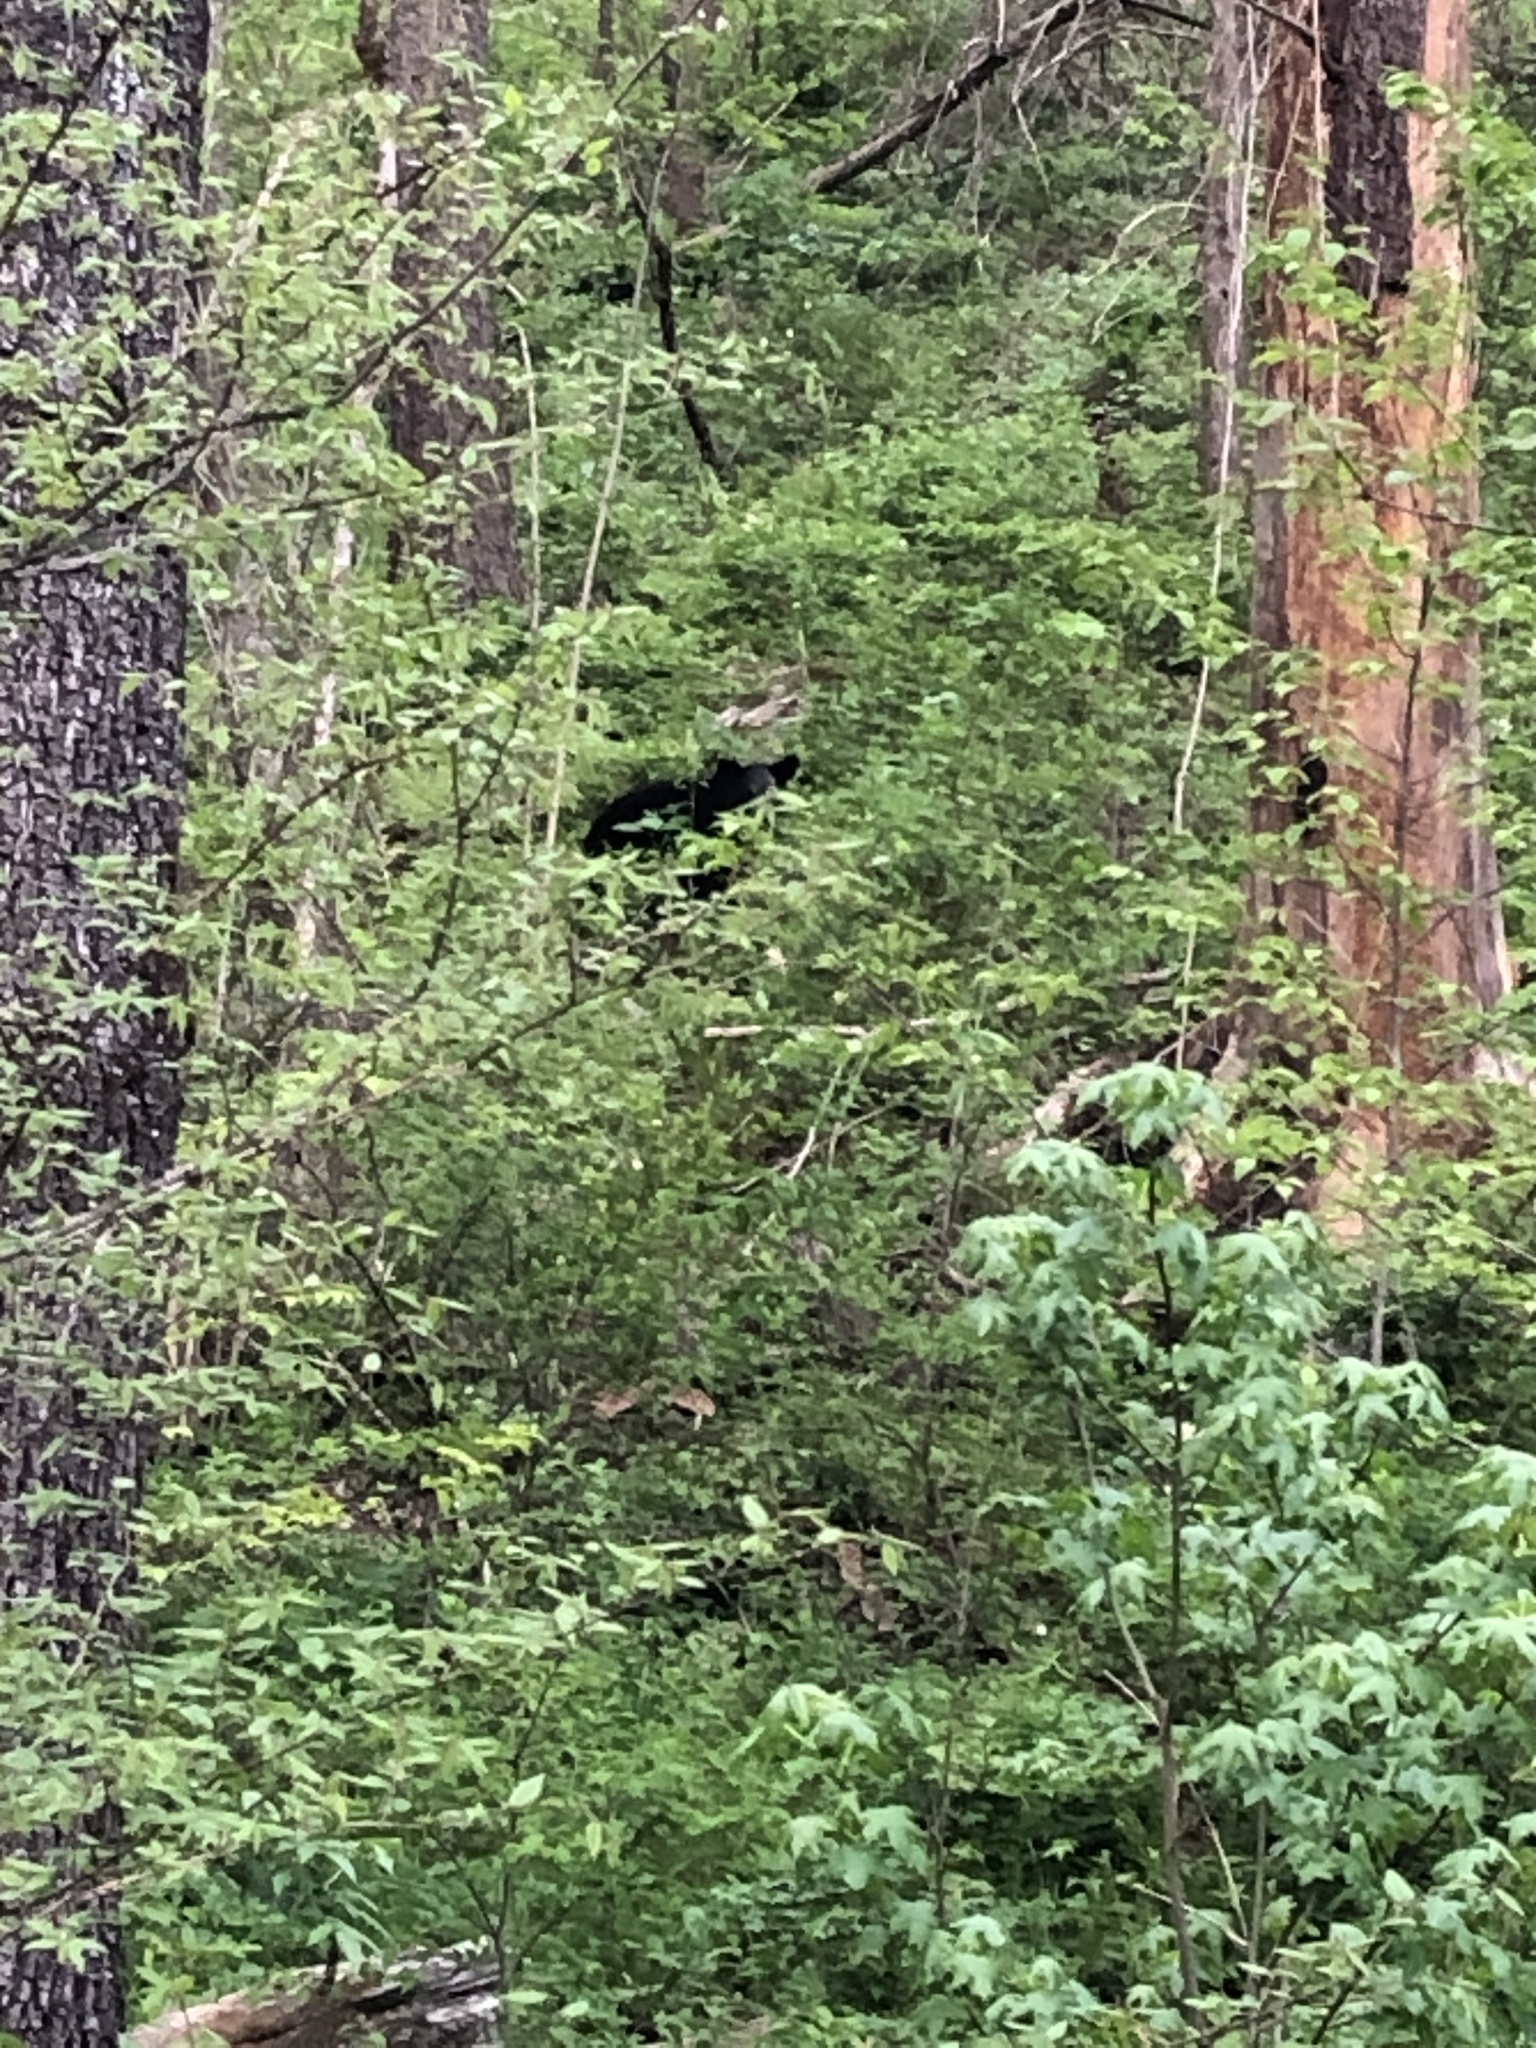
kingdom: Animalia
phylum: Chordata
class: Mammalia
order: Carnivora
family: Ursidae
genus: Ursus
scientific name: Ursus americanus
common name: American black bear
